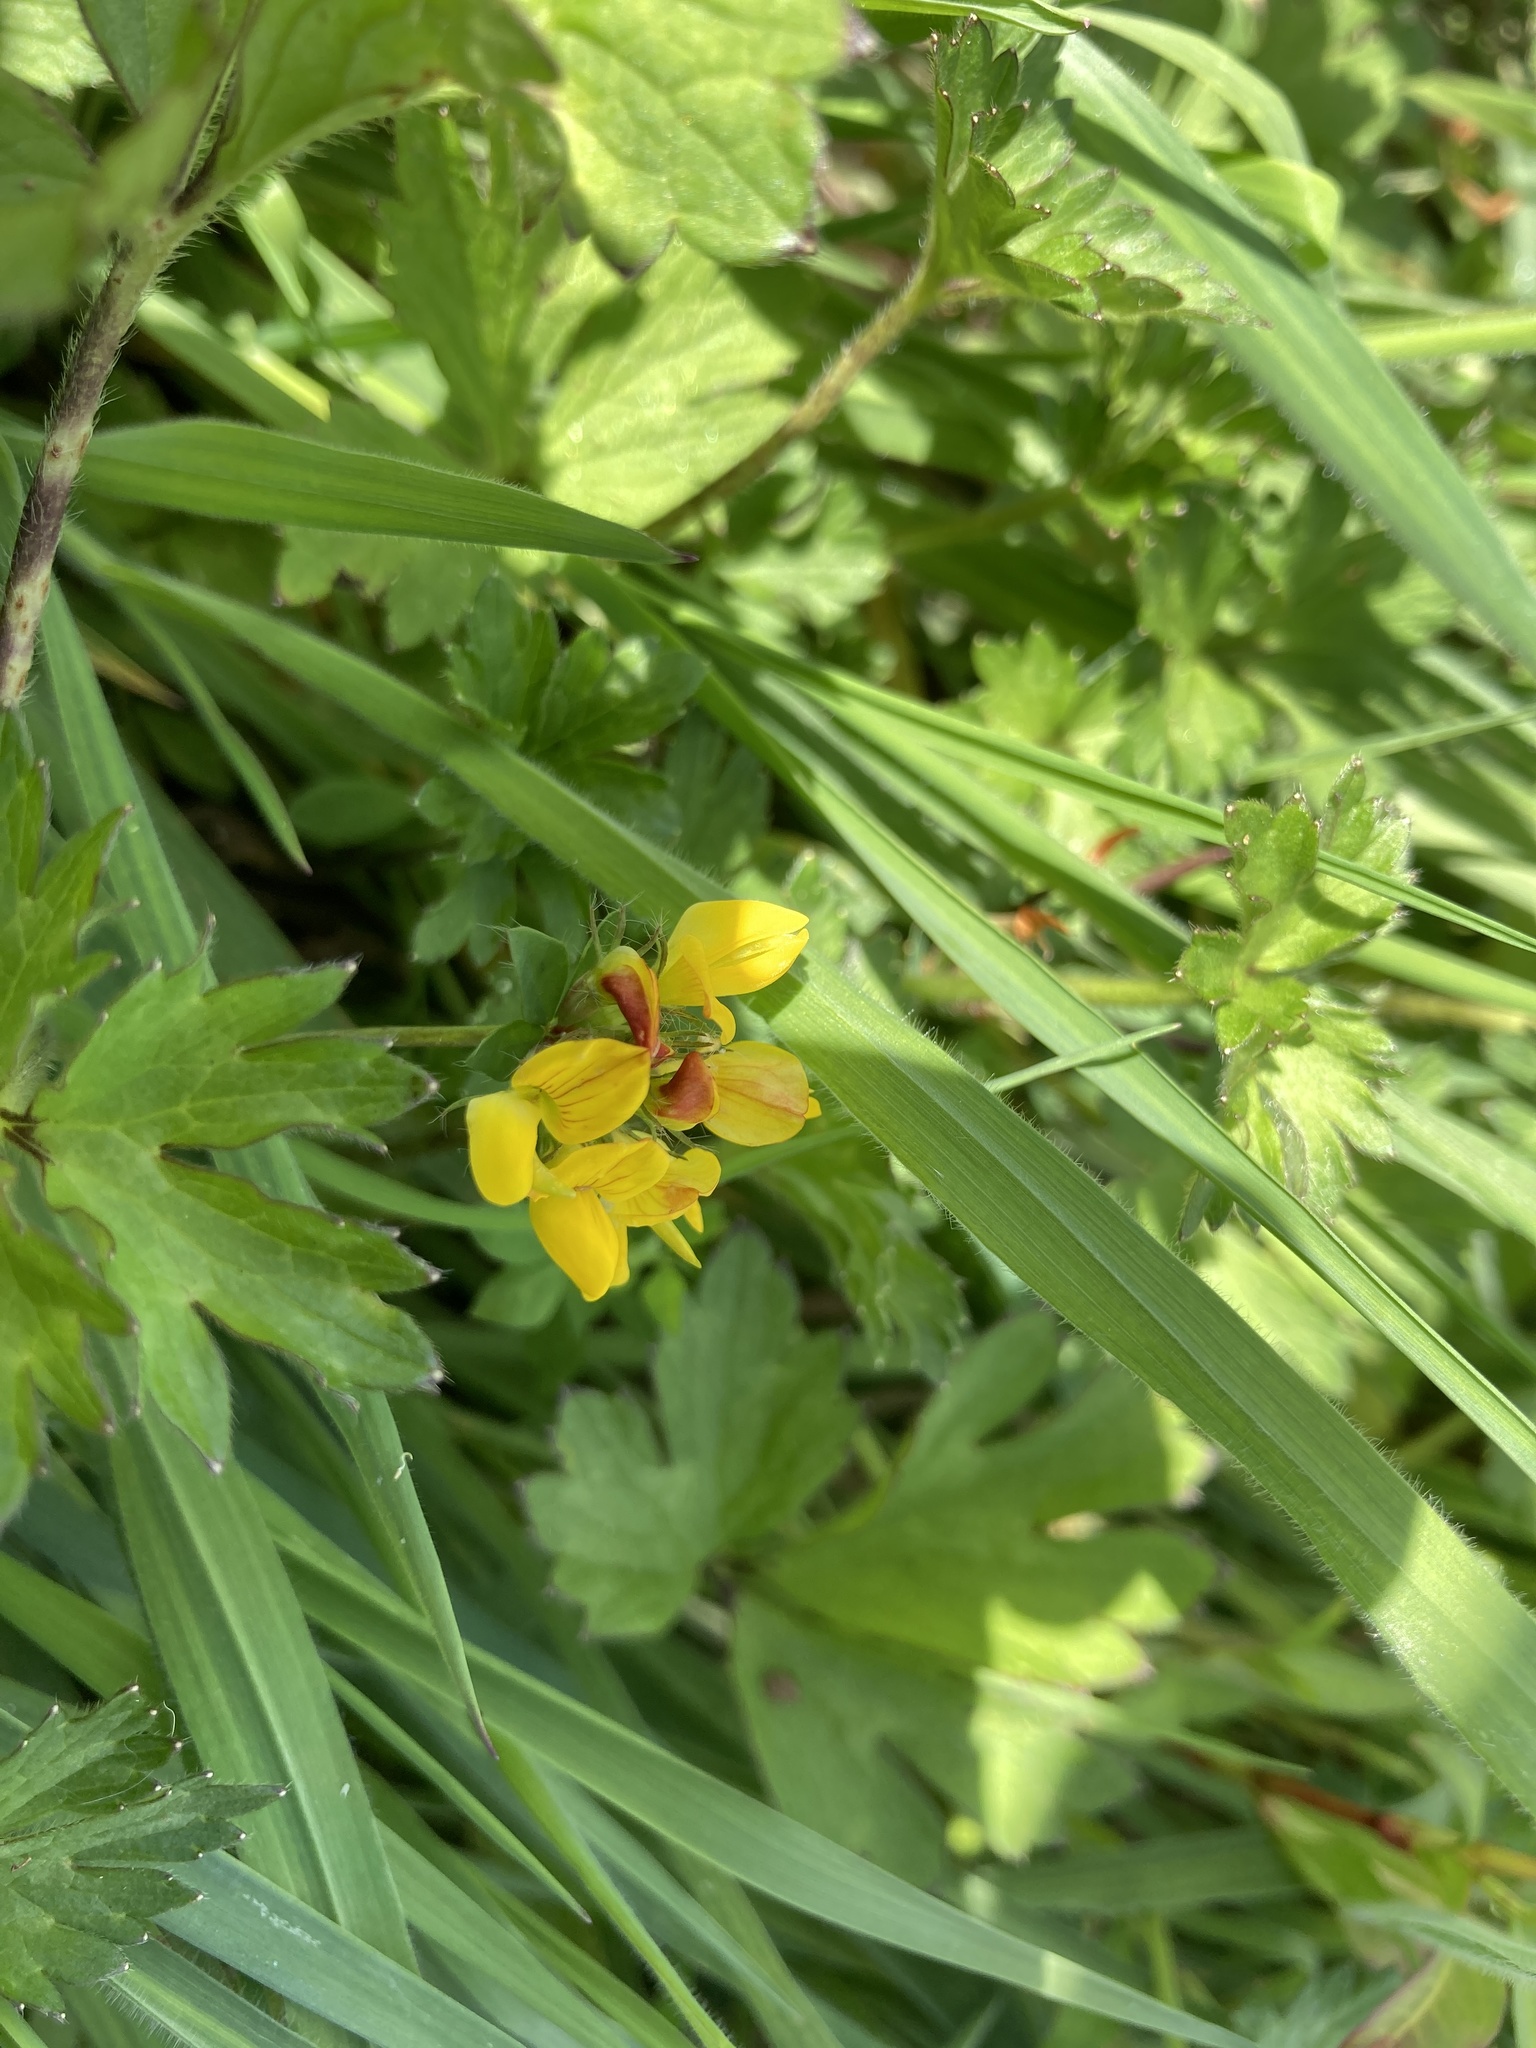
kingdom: Plantae
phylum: Tracheophyta
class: Magnoliopsida
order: Fabales
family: Fabaceae
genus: Lotus
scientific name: Lotus pedunculatus
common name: Greater birdsfoot-trefoil
